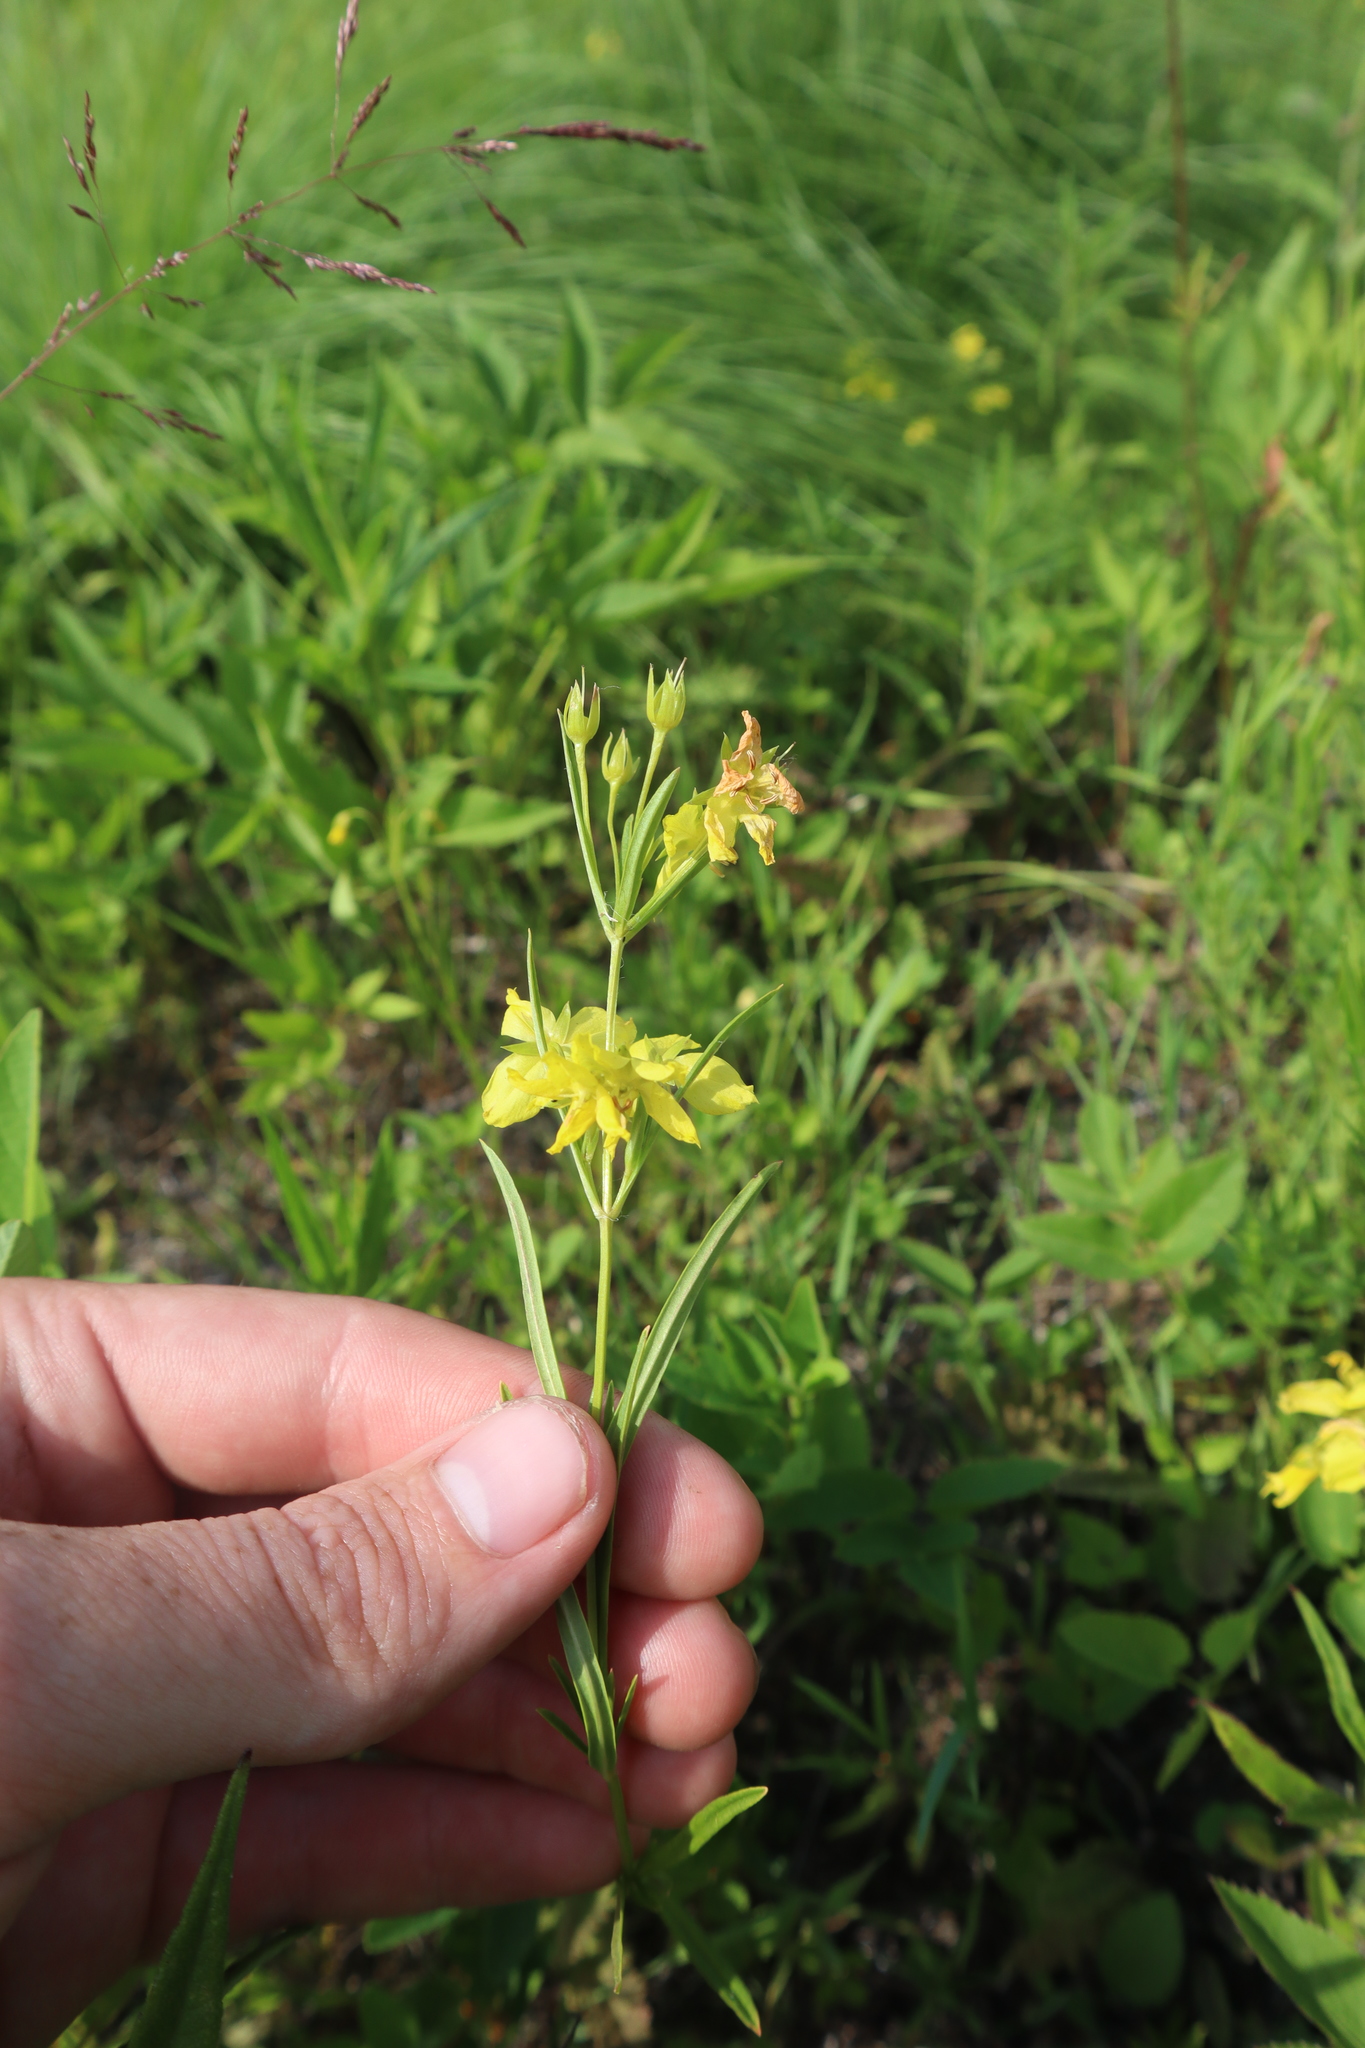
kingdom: Plantae
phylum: Tracheophyta
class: Magnoliopsida
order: Ericales
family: Primulaceae
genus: Lysimachia
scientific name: Lysimachia quadriflora
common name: Four-flowered loosestrife
